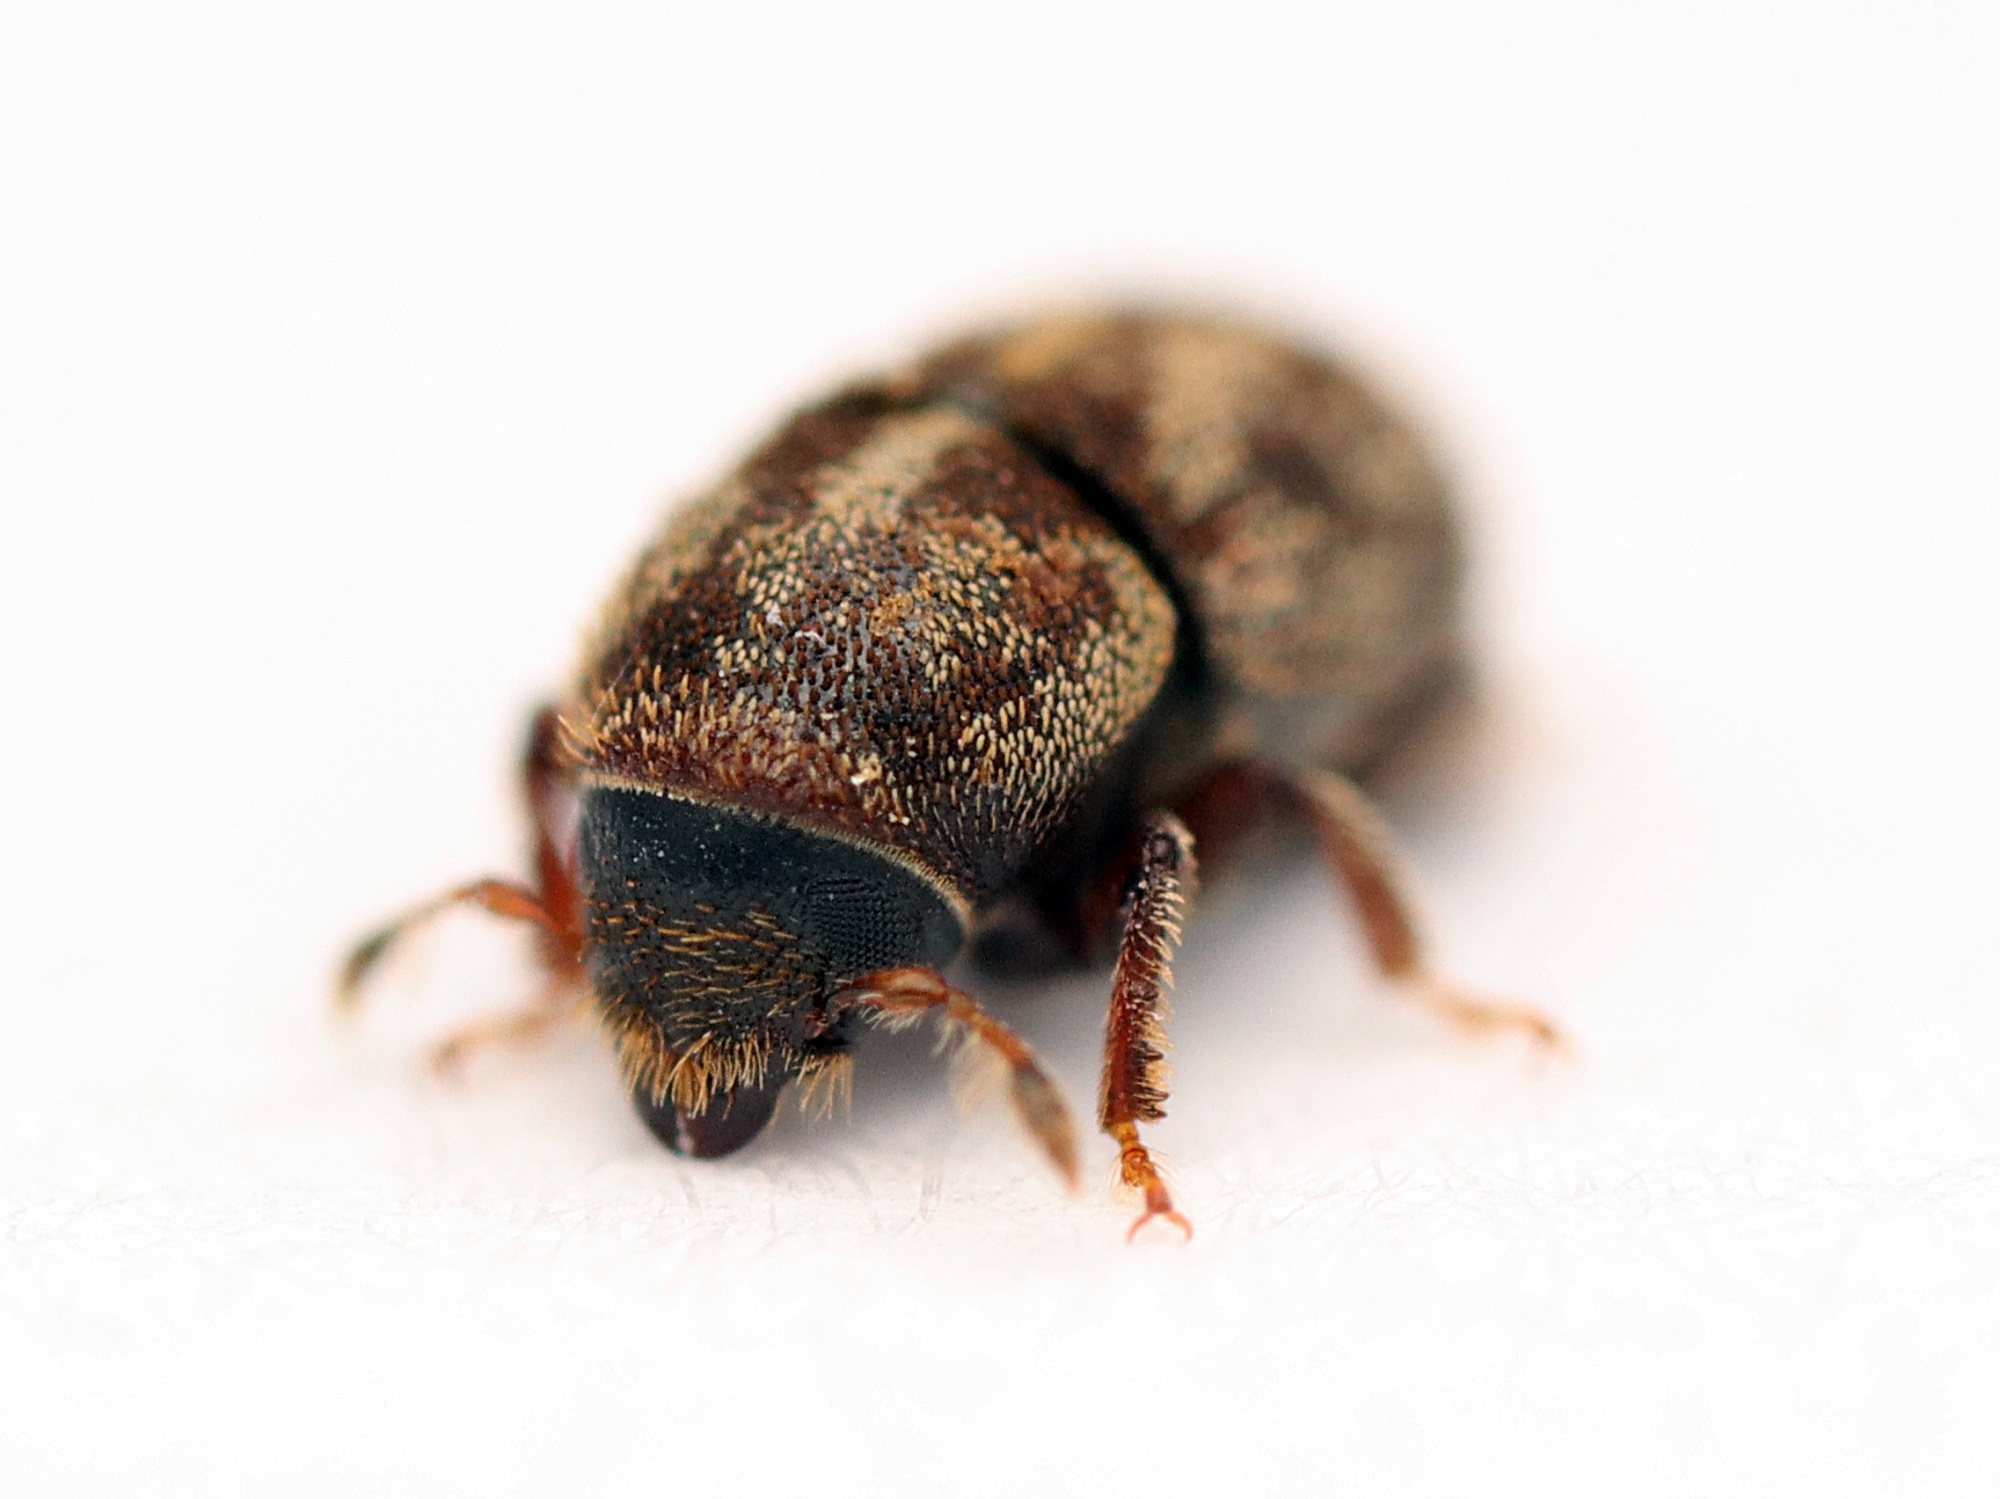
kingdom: Animalia
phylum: Arthropoda
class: Insecta
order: Coleoptera
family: Curculionidae
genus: Chaetoptelius
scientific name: Chaetoptelius mundulus
